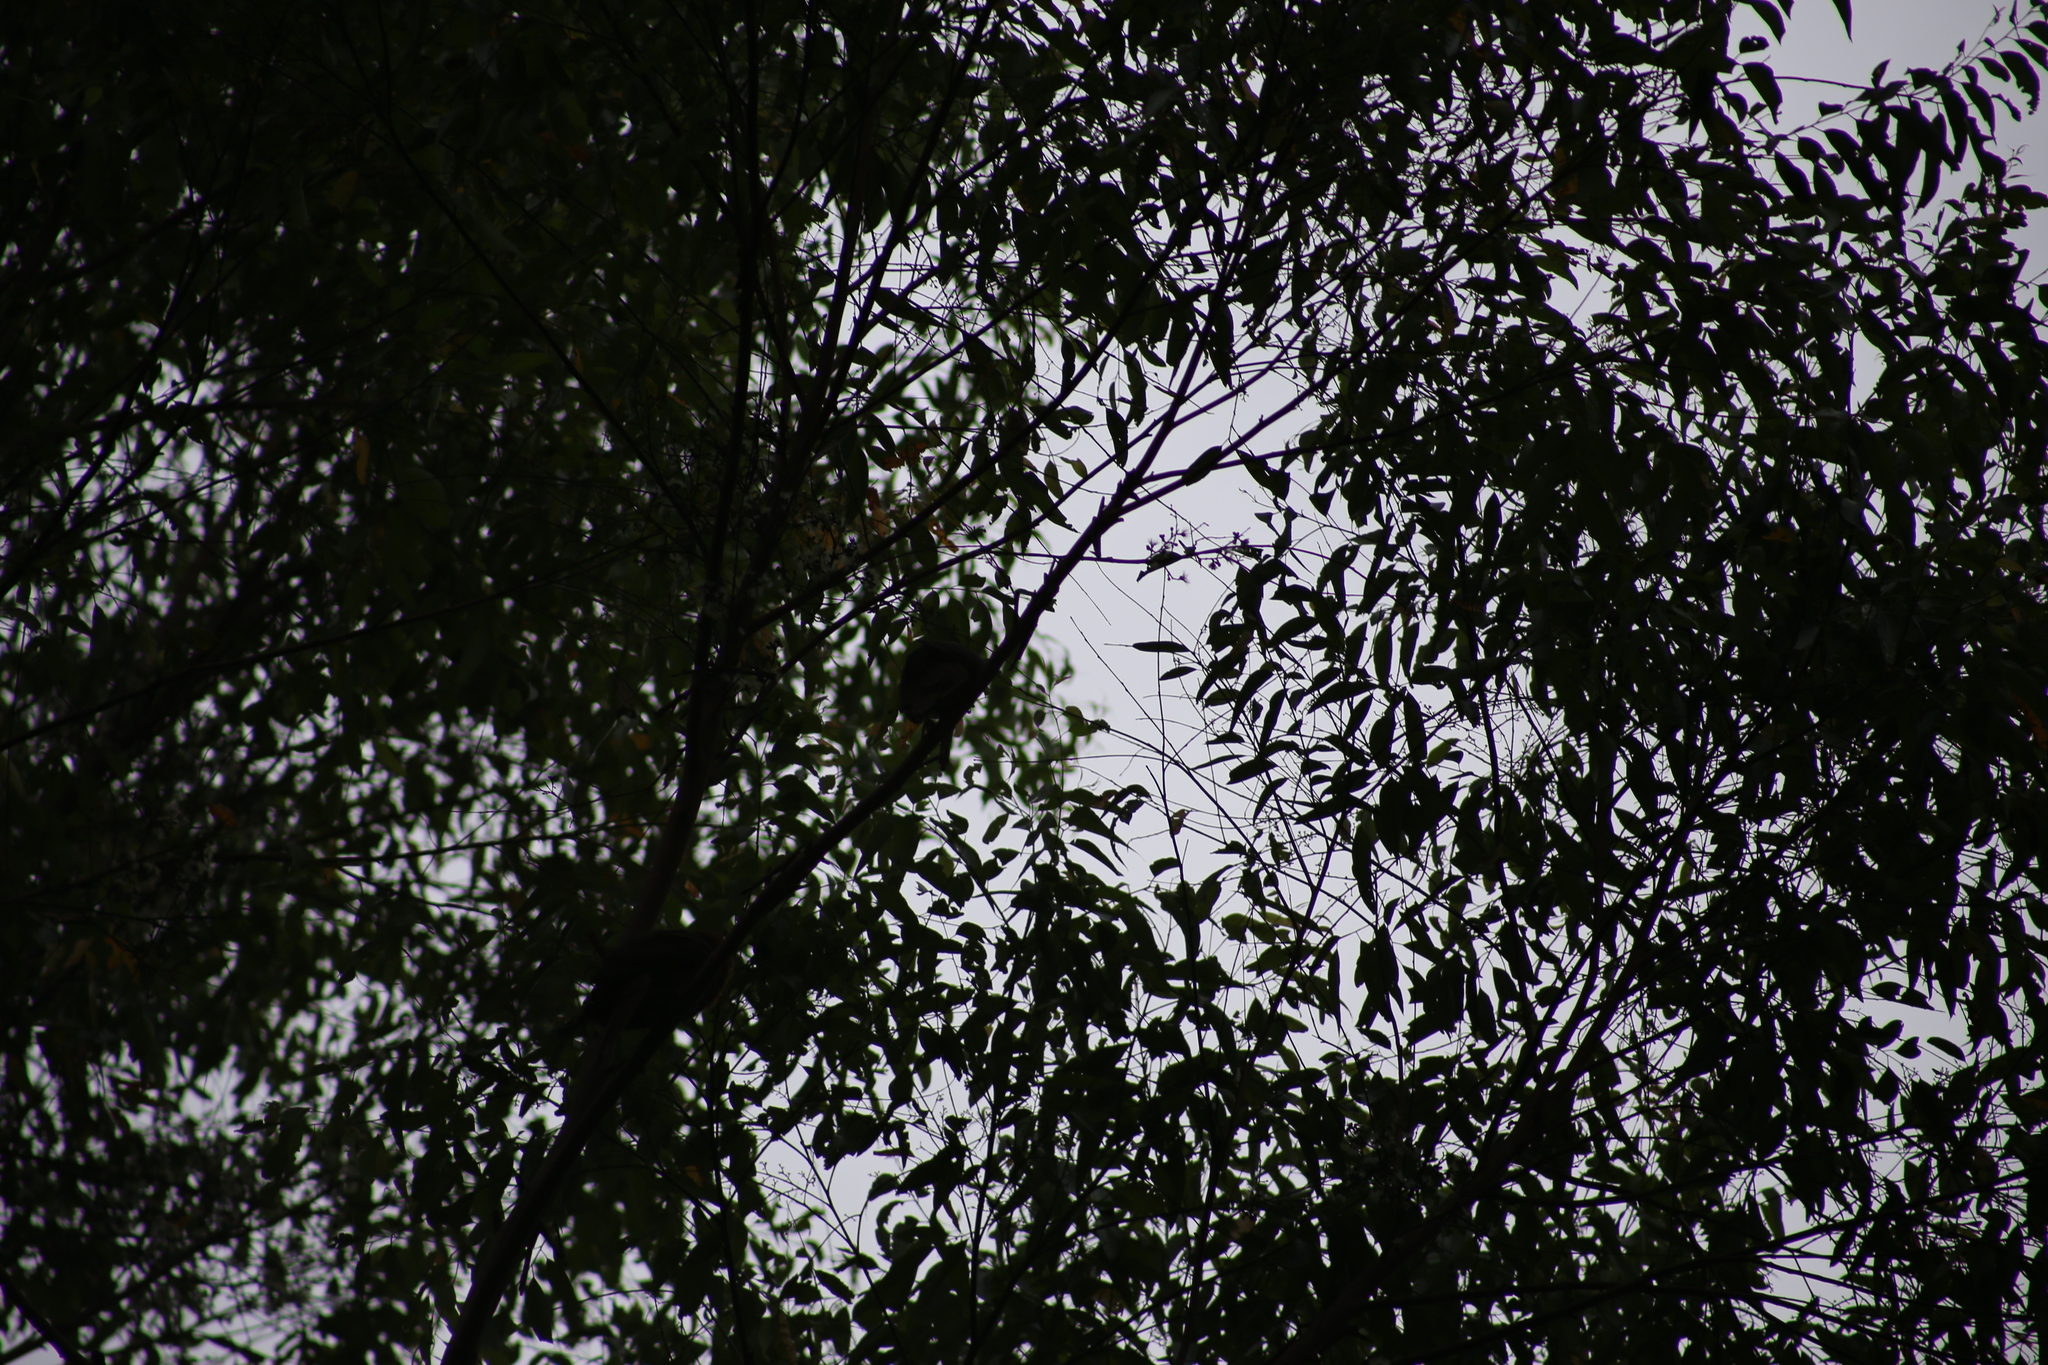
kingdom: Animalia
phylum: Chordata
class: Aves
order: Columbiformes
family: Columbidae
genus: Macropygia
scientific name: Macropygia phasianella
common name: Brown cuckoo-dove
